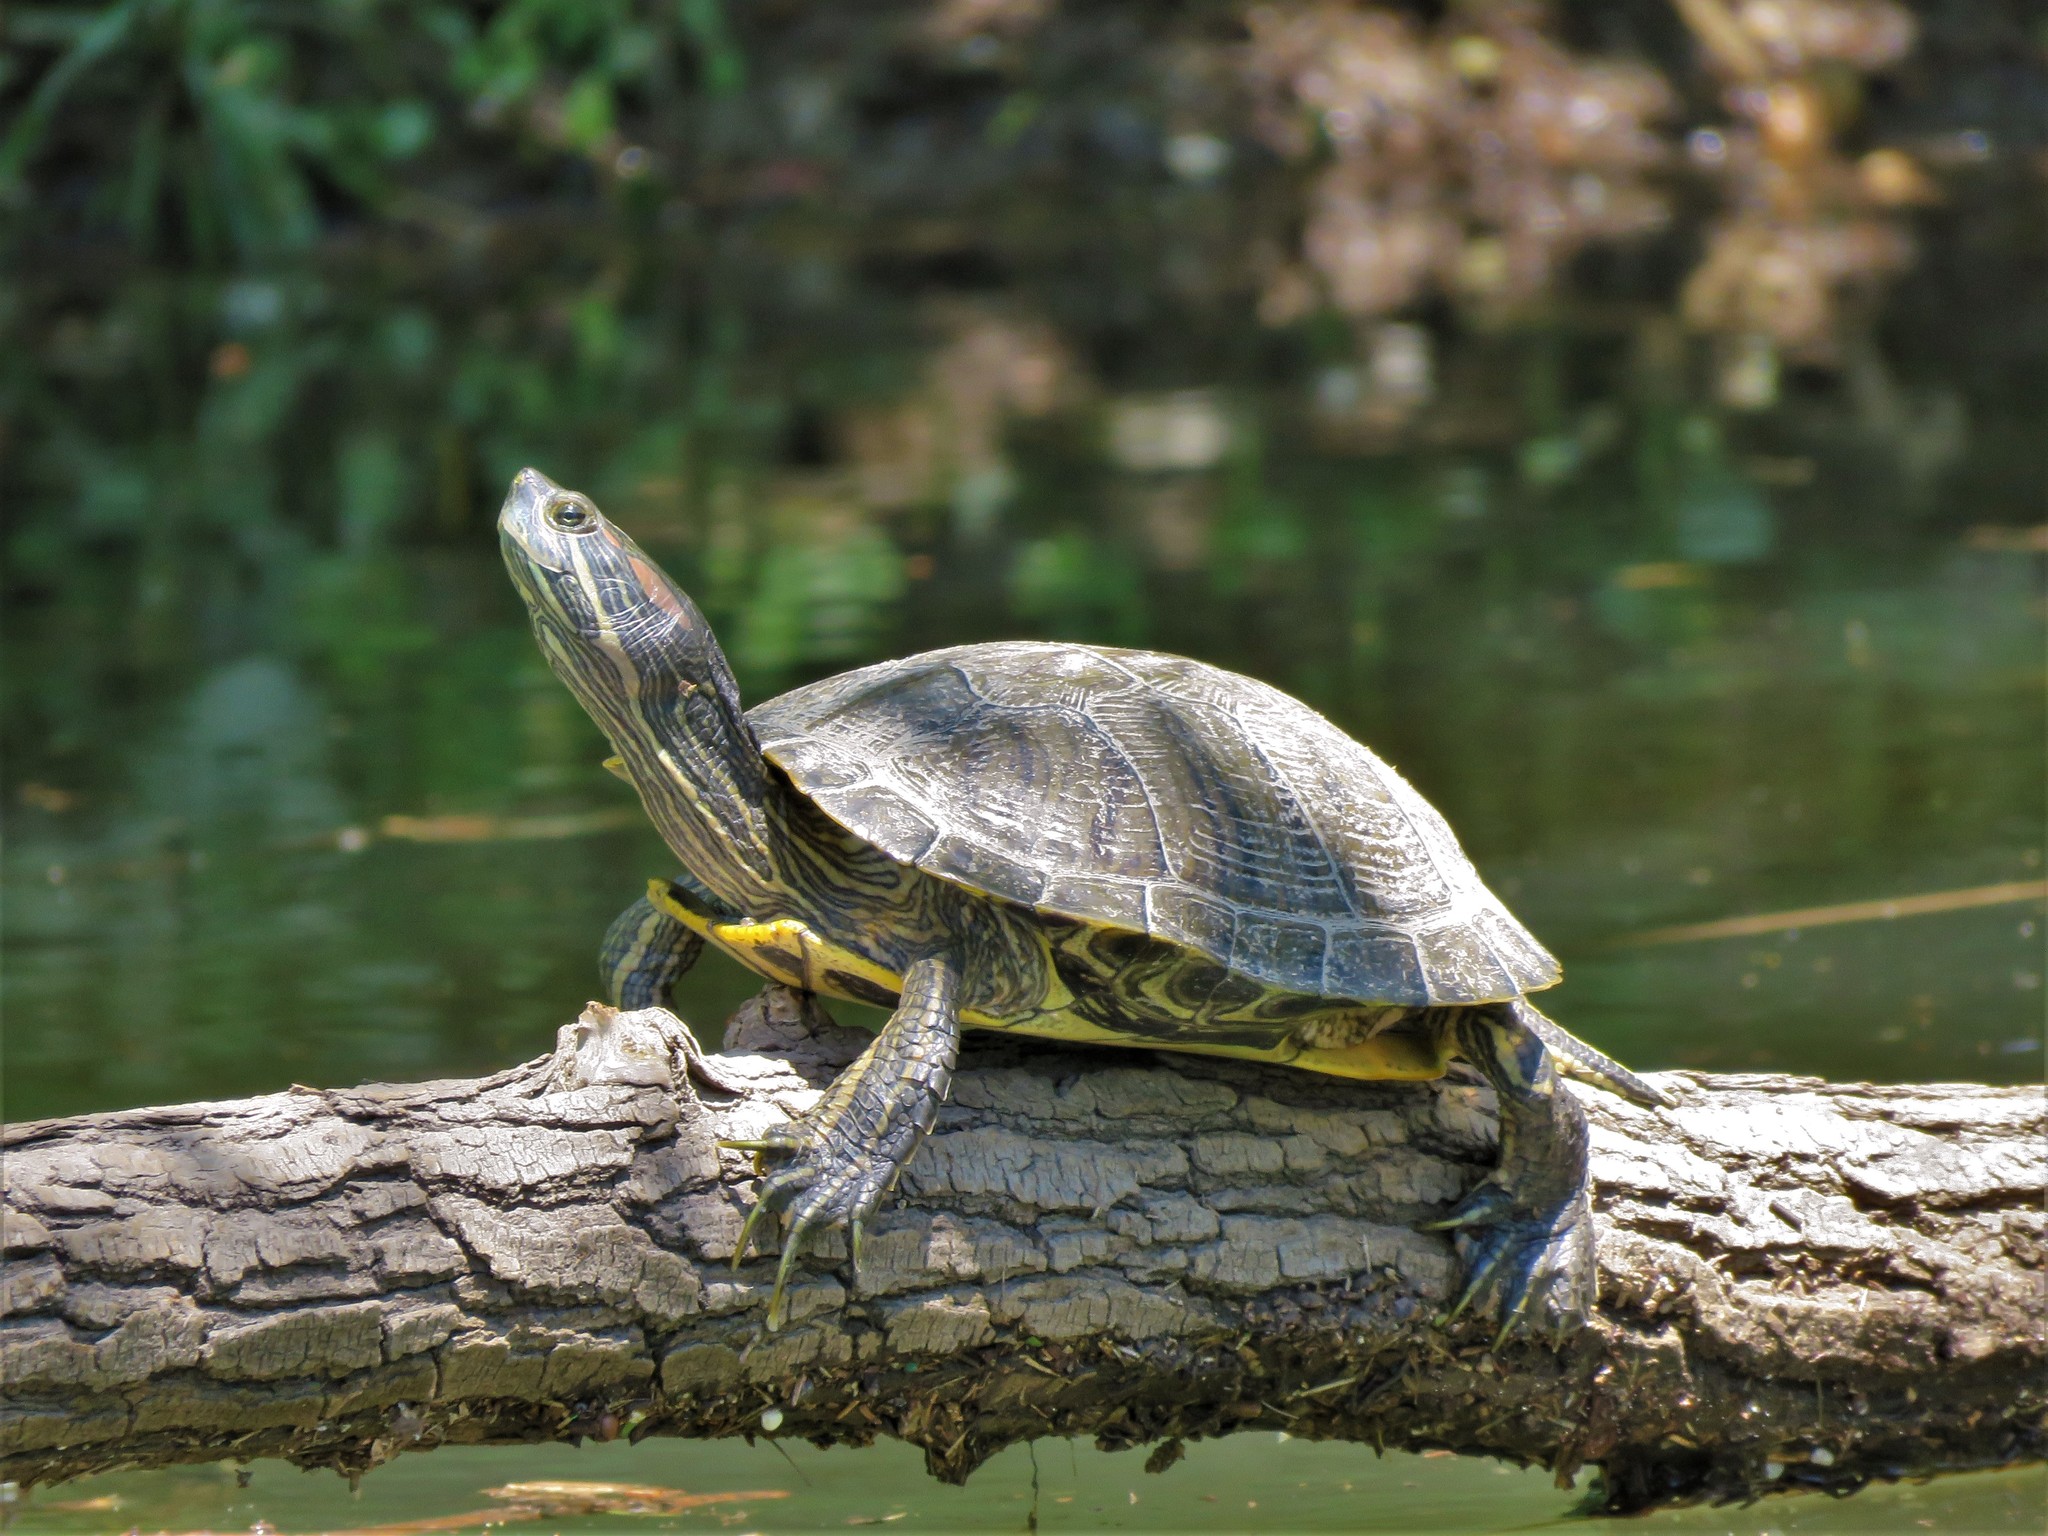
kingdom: Animalia
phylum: Chordata
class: Testudines
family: Emydidae
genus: Trachemys
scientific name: Trachemys scripta
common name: Slider
